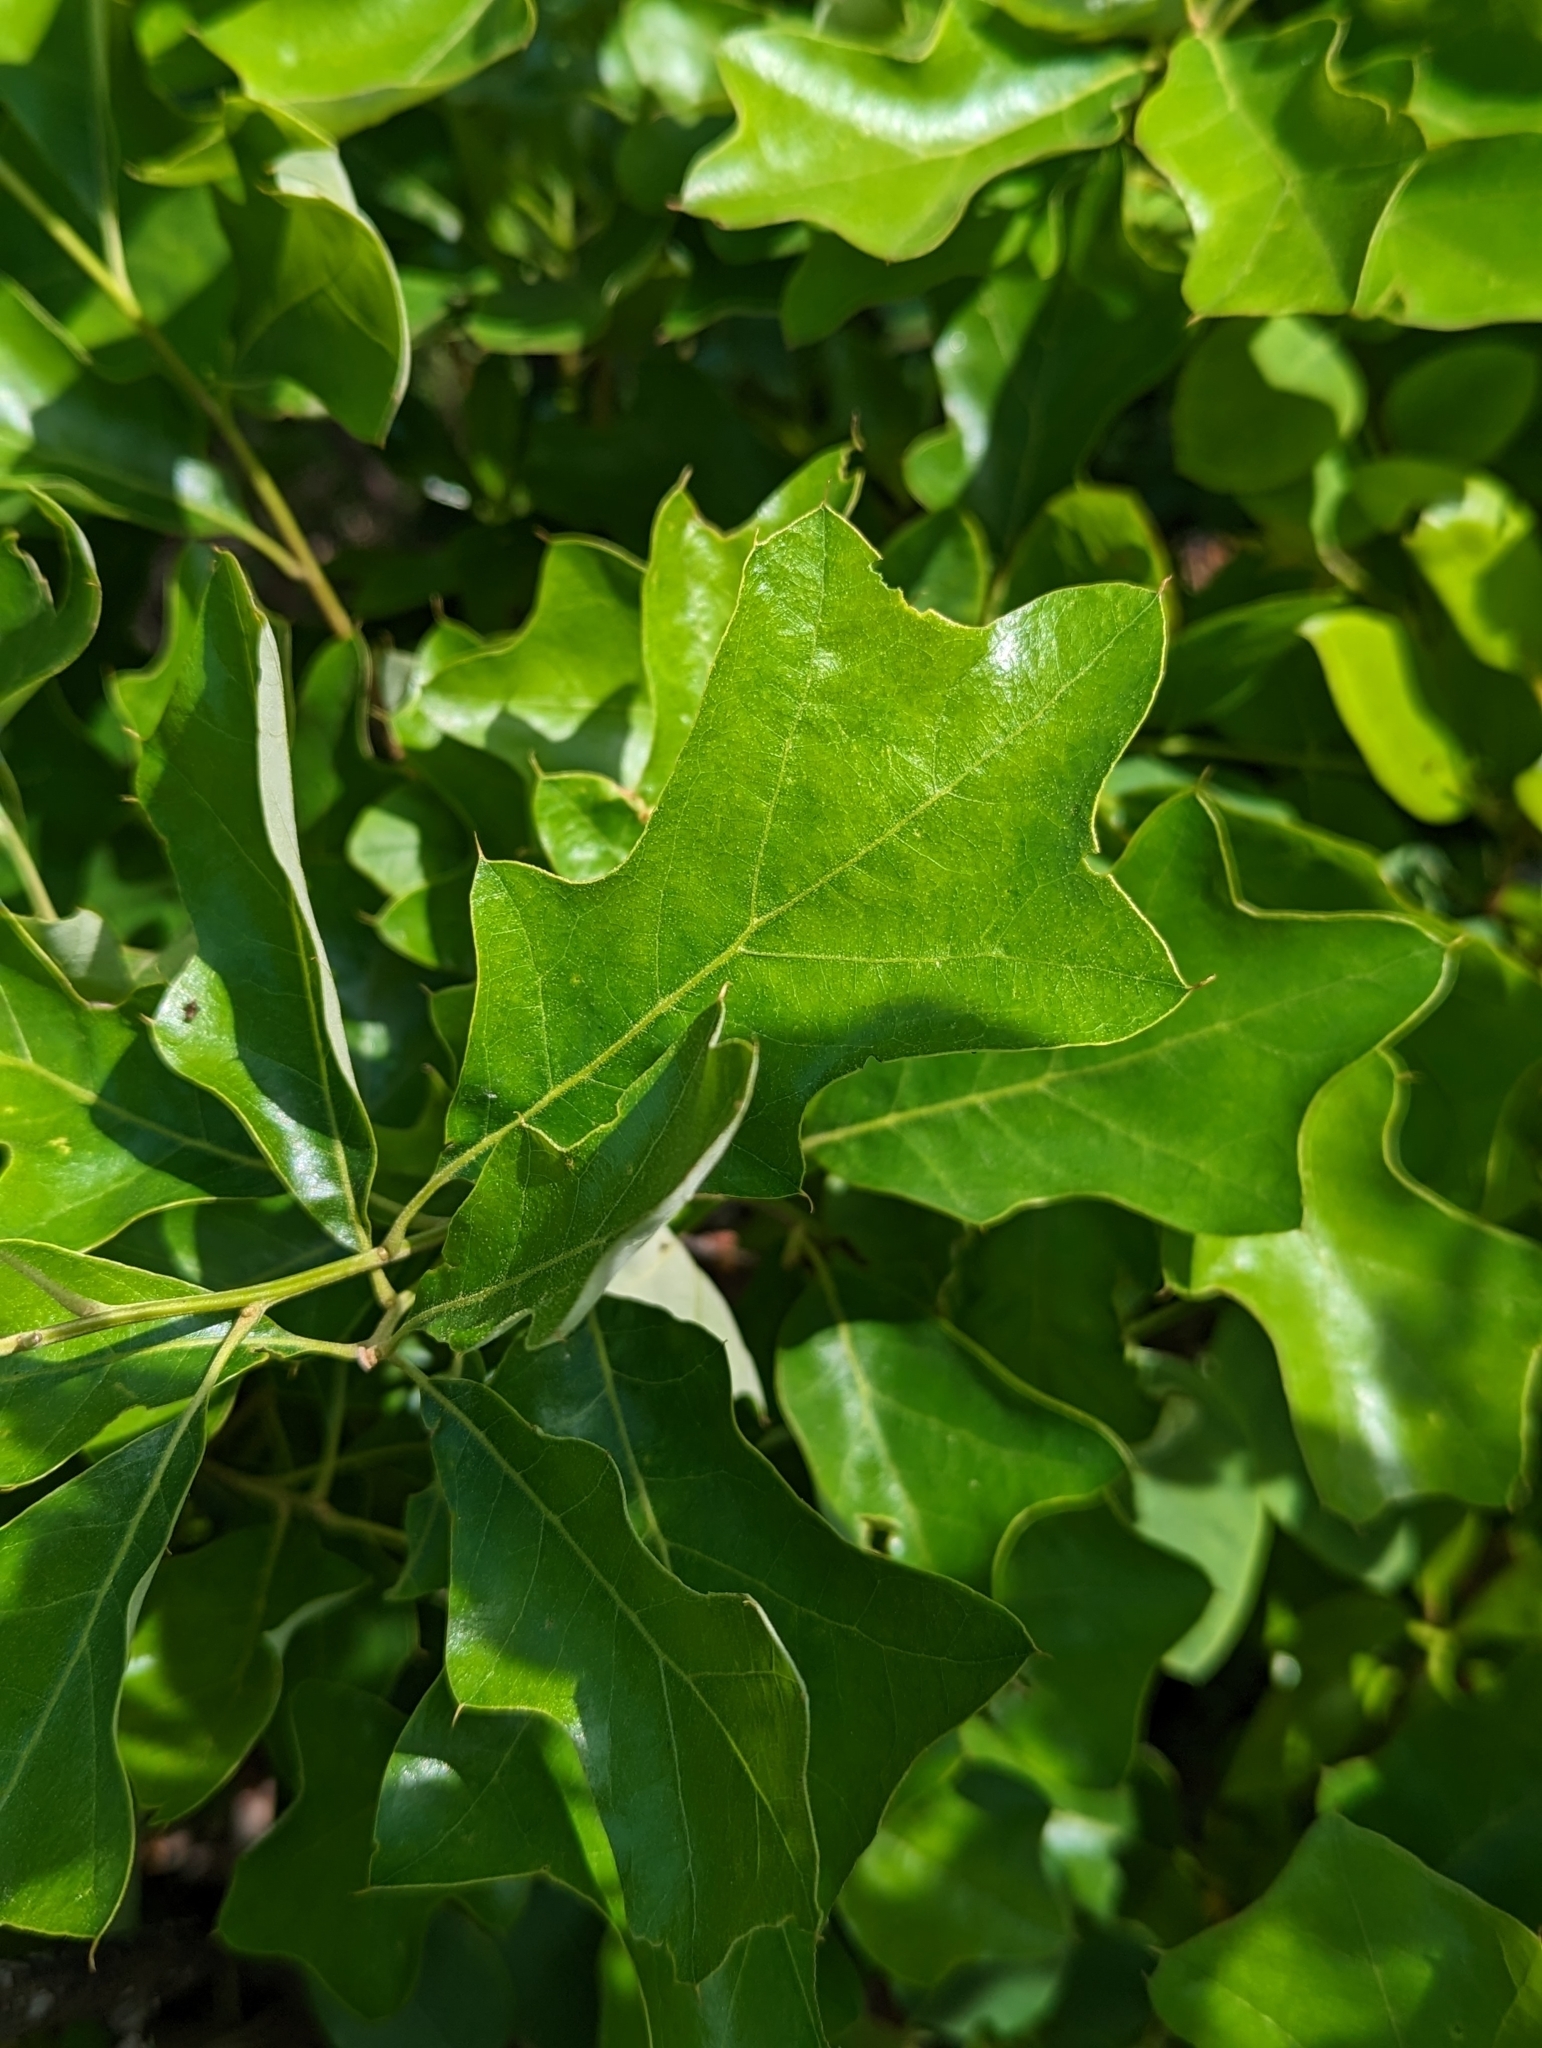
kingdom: Plantae
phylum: Tracheophyta
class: Magnoliopsida
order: Fagales
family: Fagaceae
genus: Quercus
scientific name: Quercus ilicifolia
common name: Bear oak
